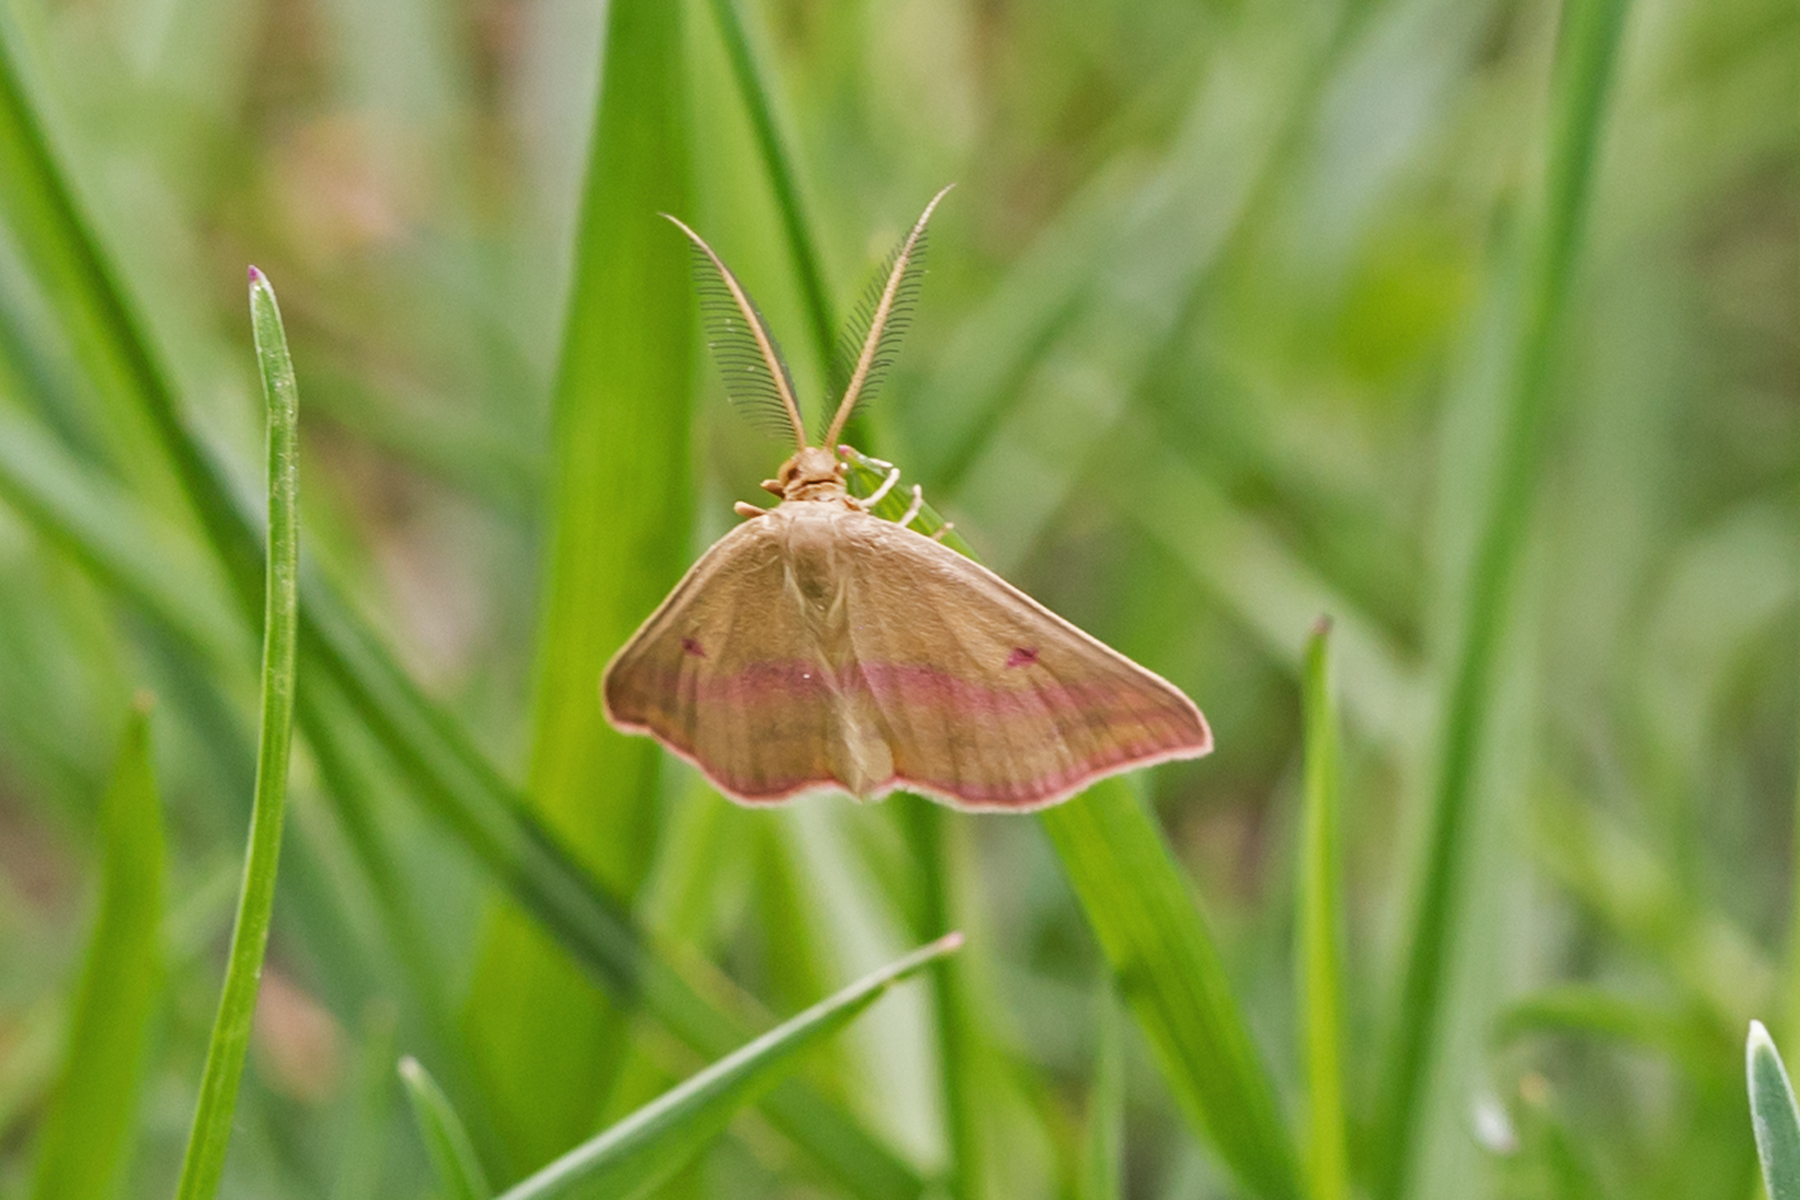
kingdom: Animalia
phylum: Arthropoda
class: Insecta
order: Lepidoptera
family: Geometridae
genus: Haematopis
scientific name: Haematopis grataria
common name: Chickweed geometer
